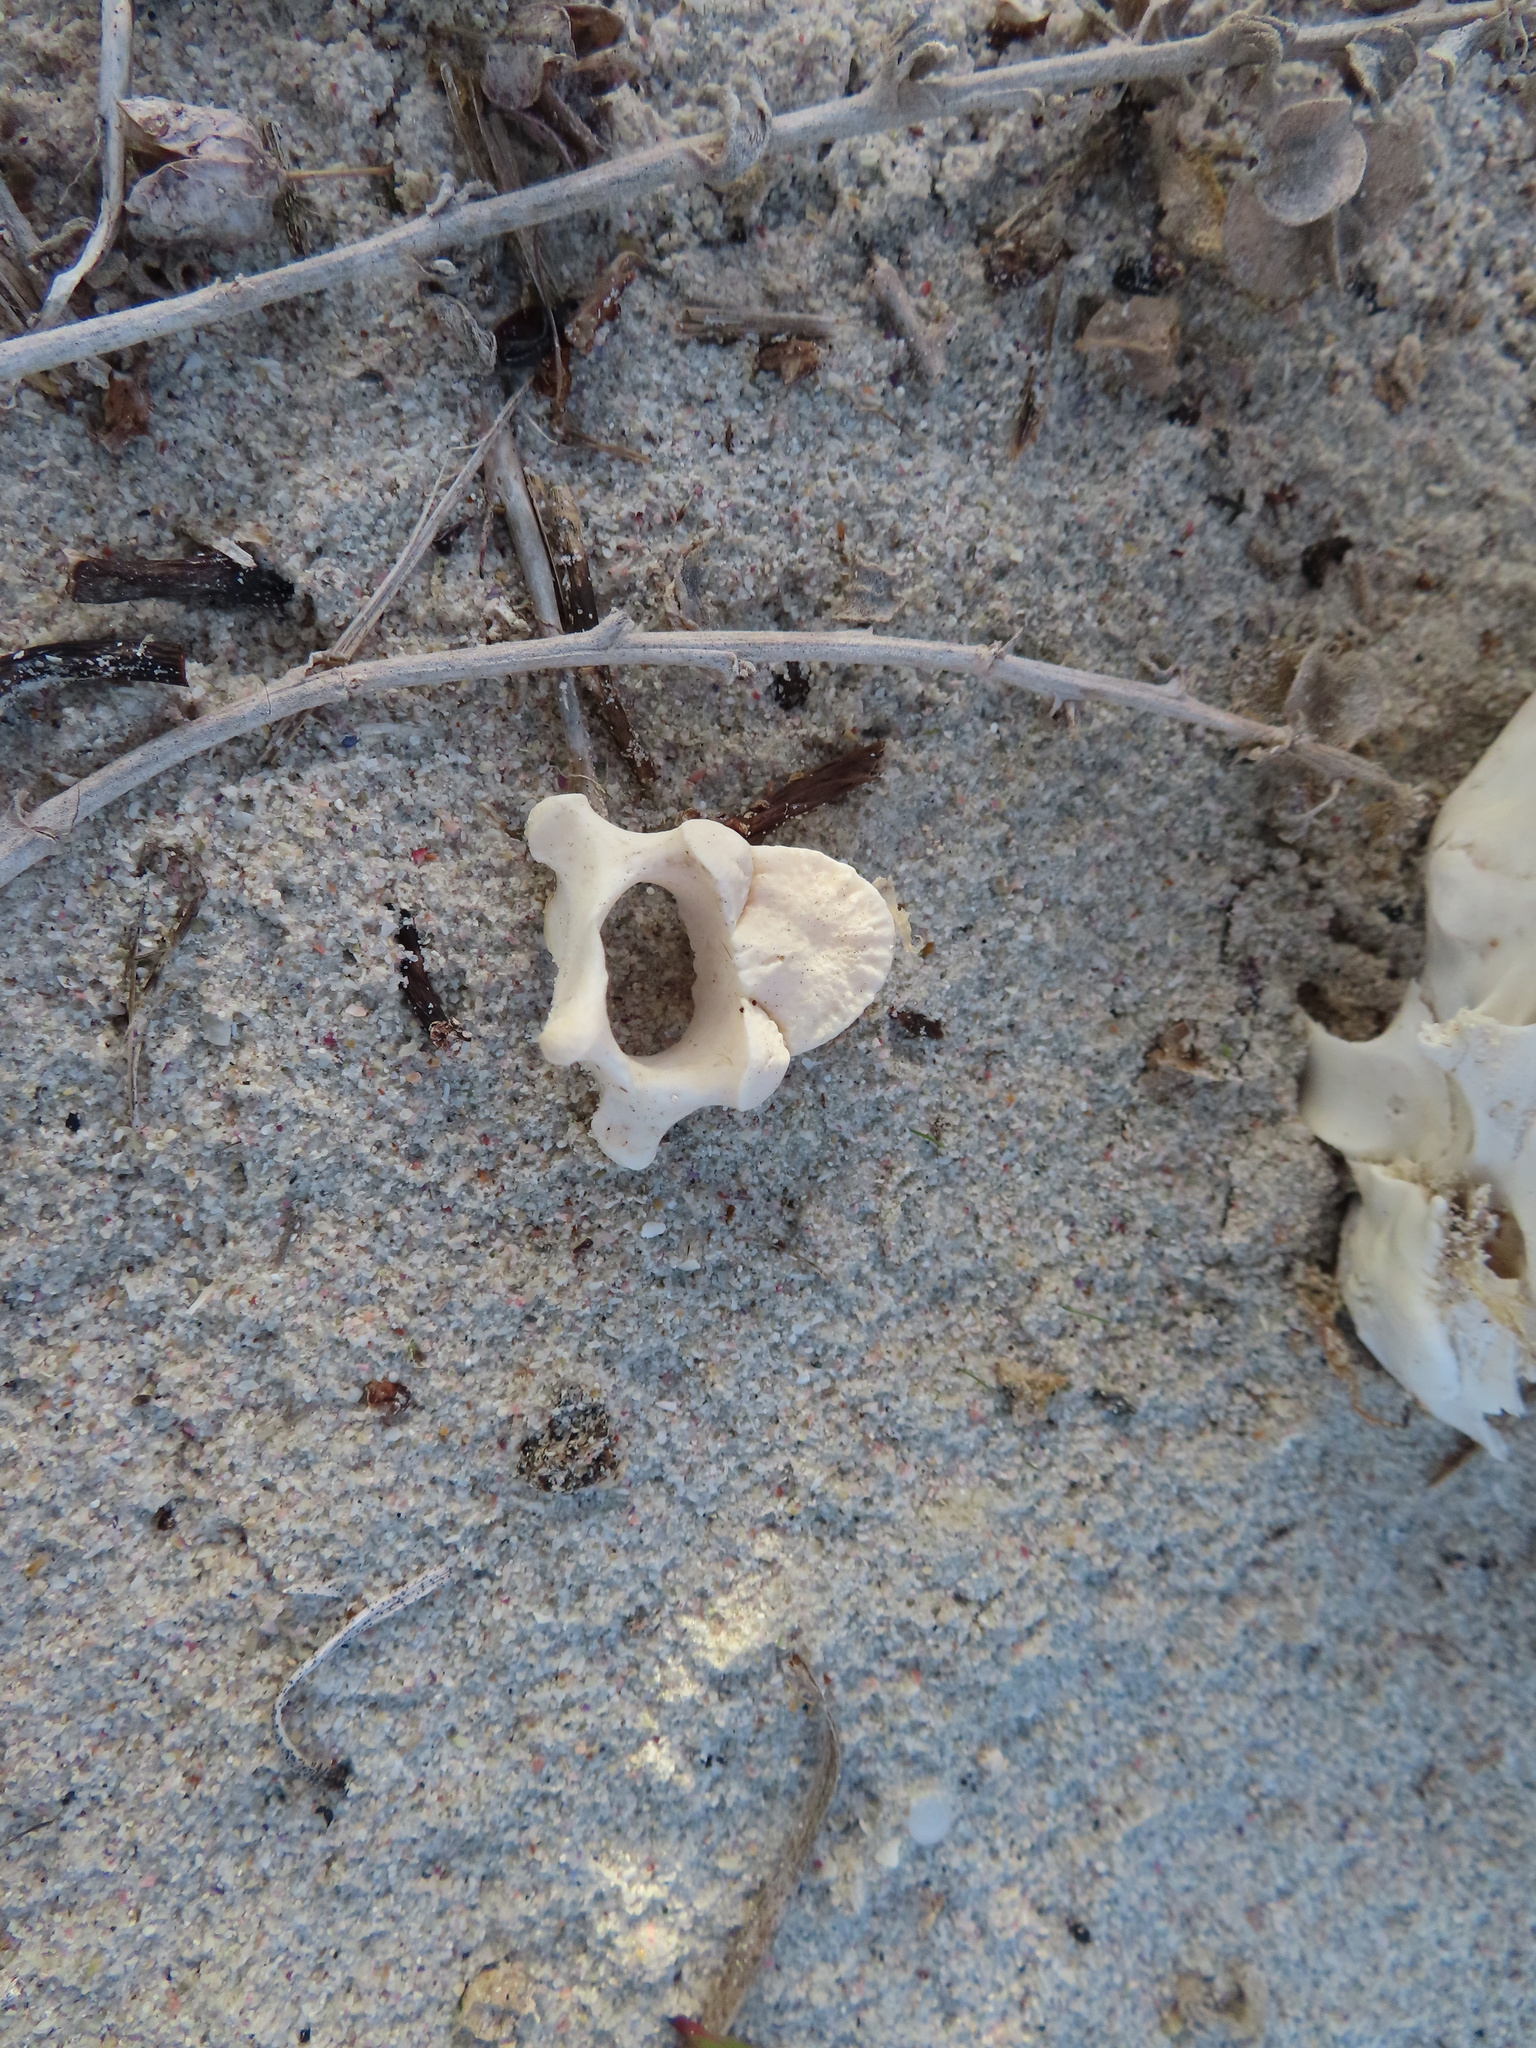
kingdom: Animalia
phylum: Chordata
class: Mammalia
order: Carnivora
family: Otariidae
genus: Arctocephalus
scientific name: Arctocephalus pusillus
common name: Brown fur seal
